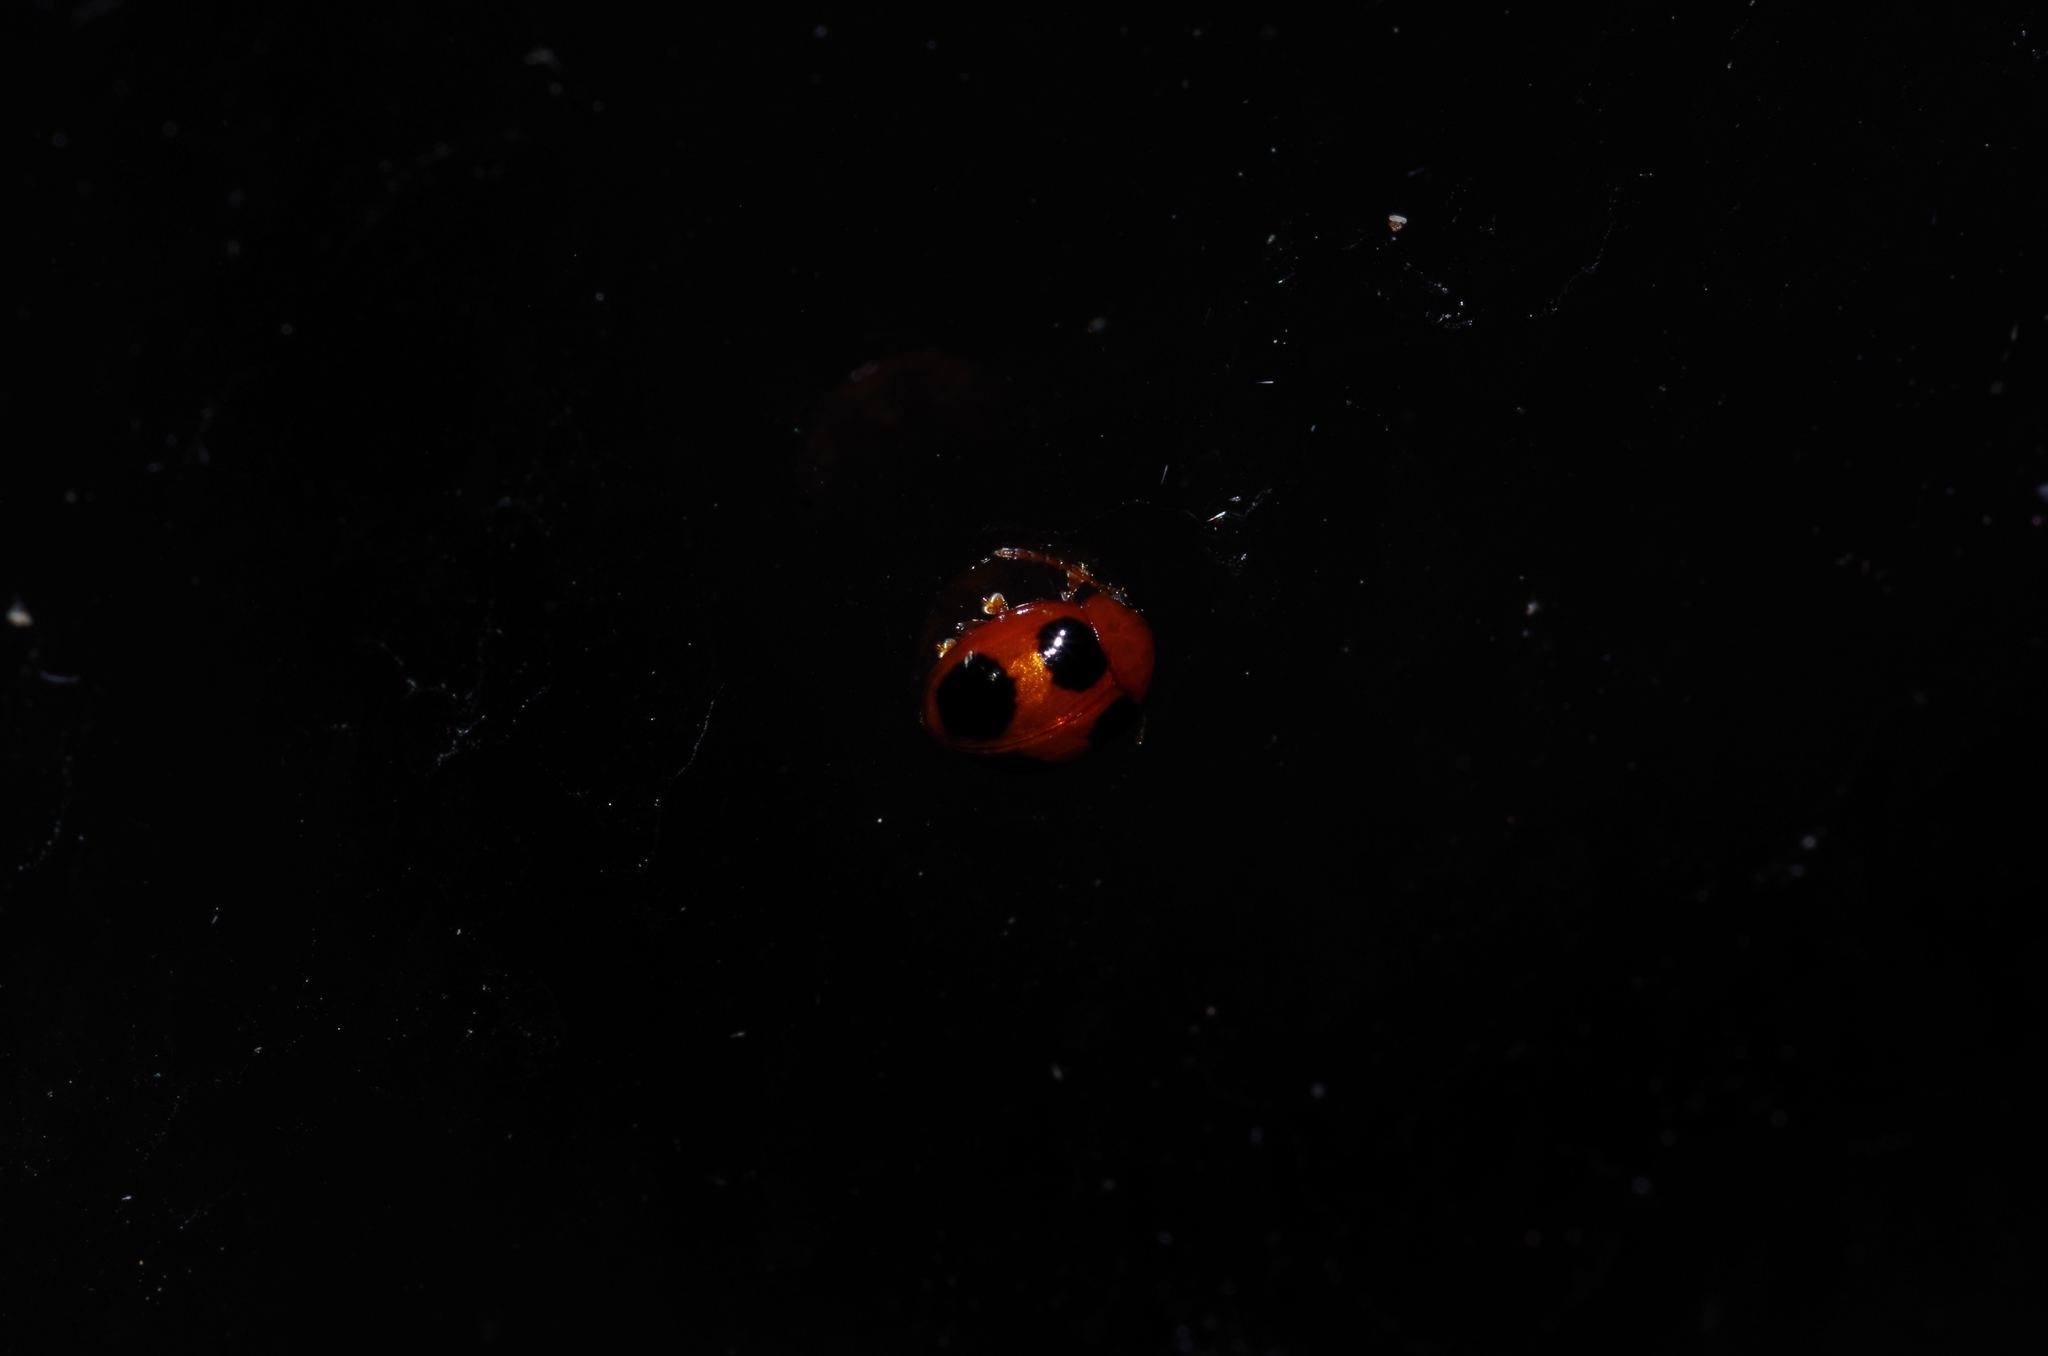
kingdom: Animalia
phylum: Arthropoda
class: Insecta
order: Coleoptera
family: Chrysomelidae
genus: Sphaeroderma
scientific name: Sphaeroderma
